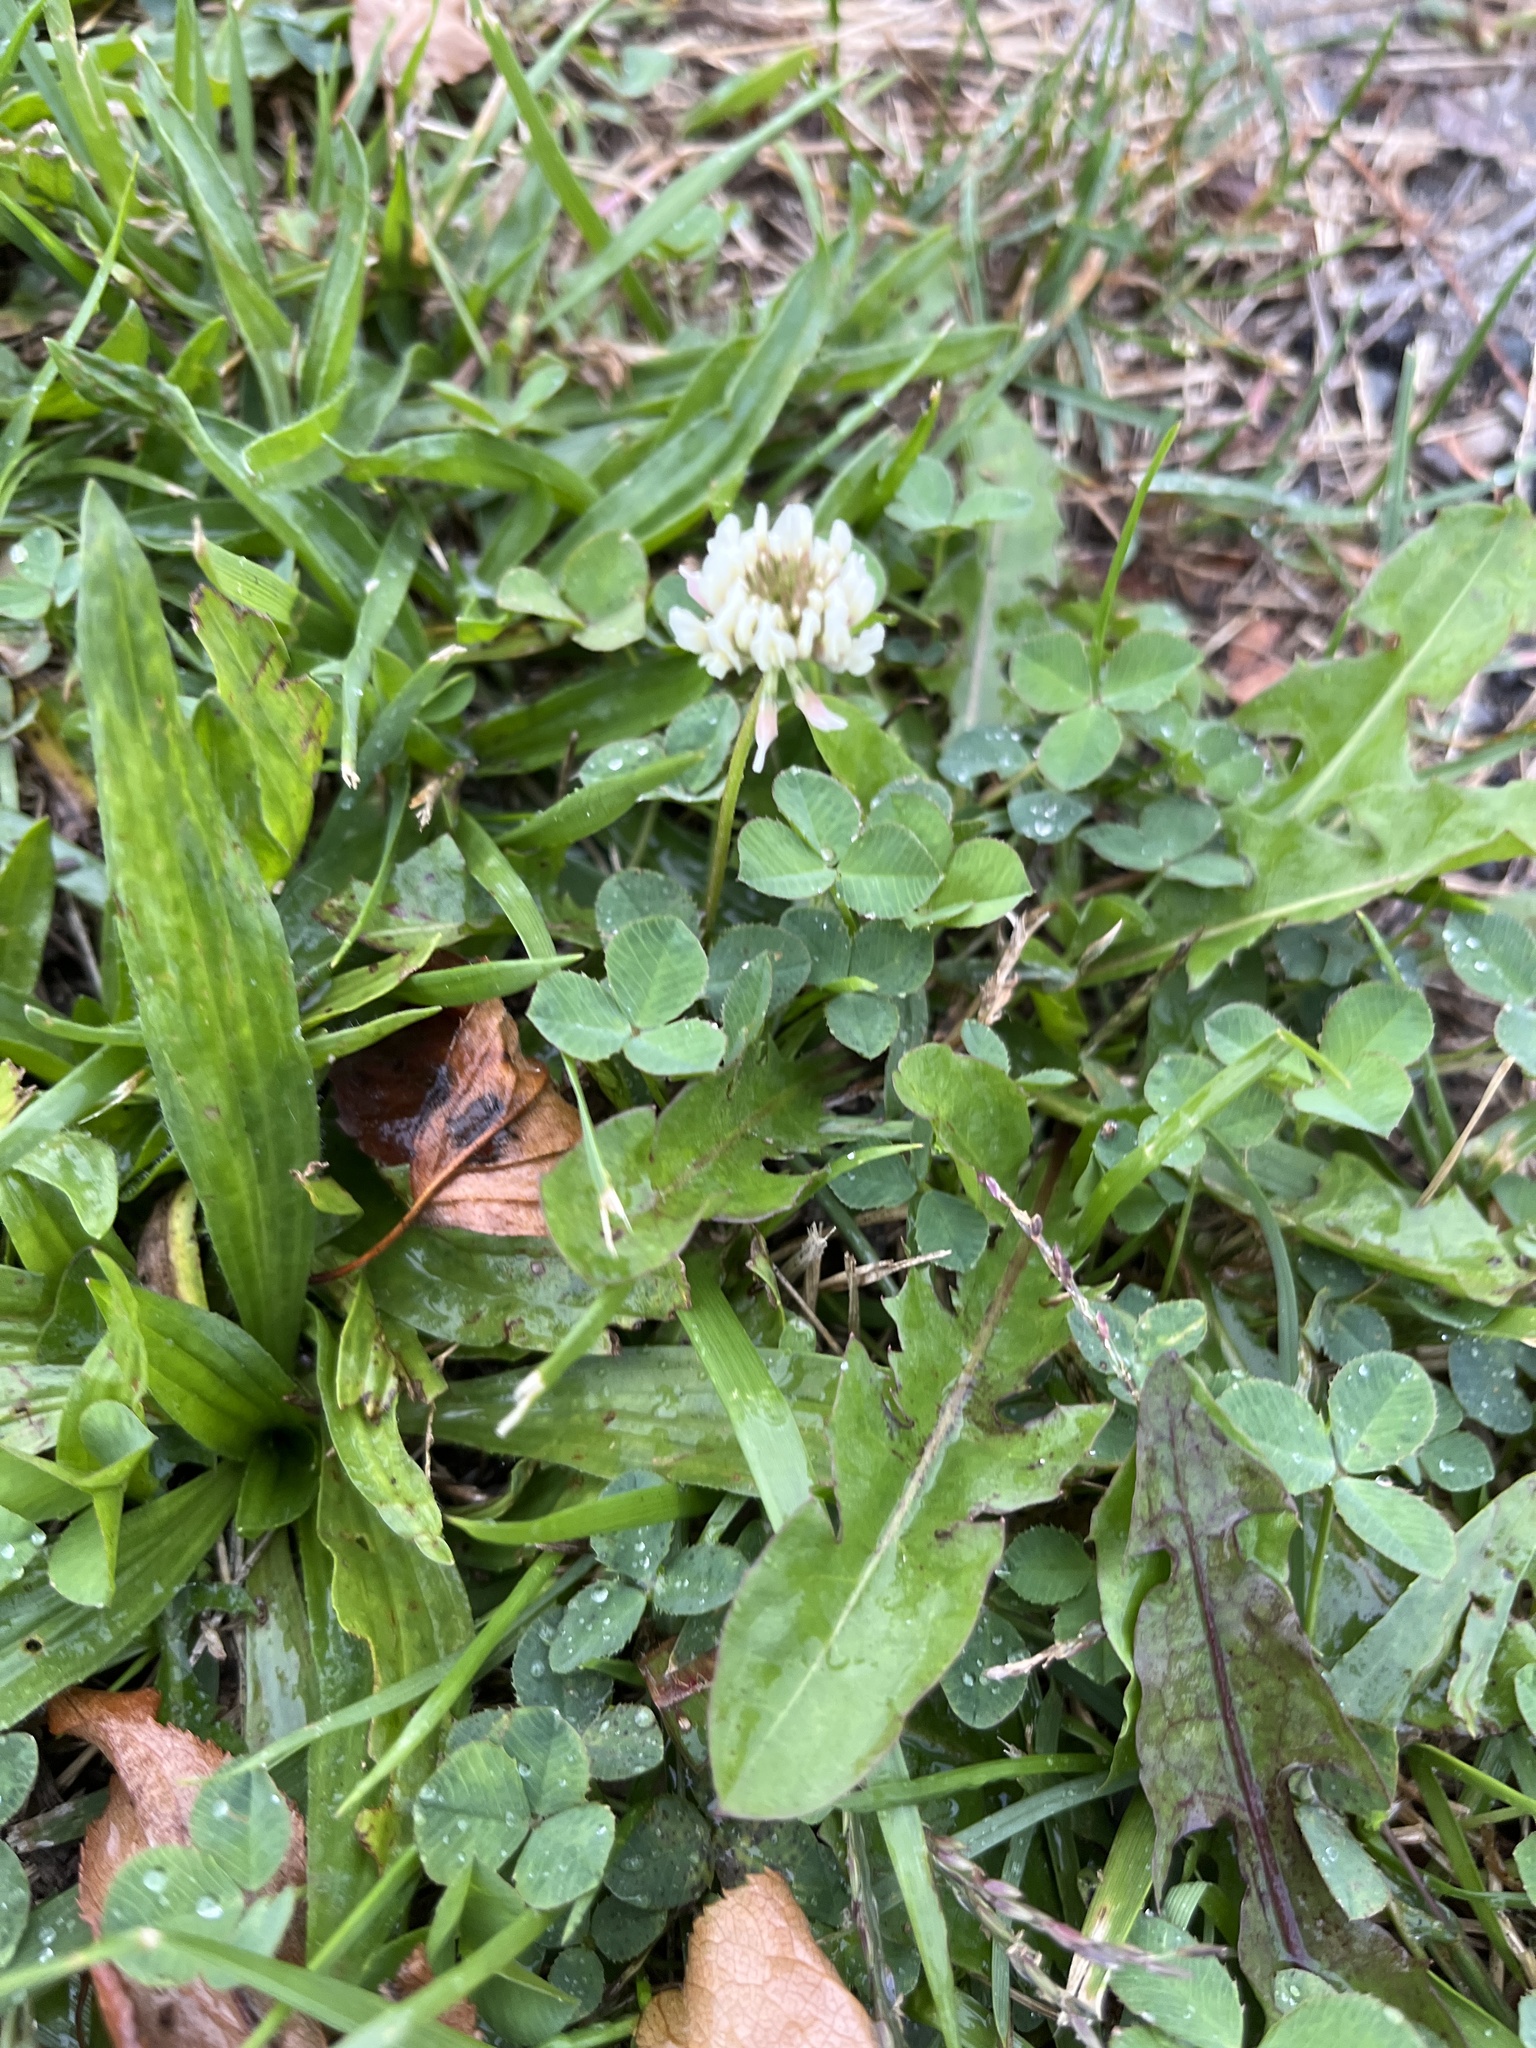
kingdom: Plantae
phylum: Tracheophyta
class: Magnoliopsida
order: Fabales
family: Fabaceae
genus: Trifolium
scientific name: Trifolium repens
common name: White clover
